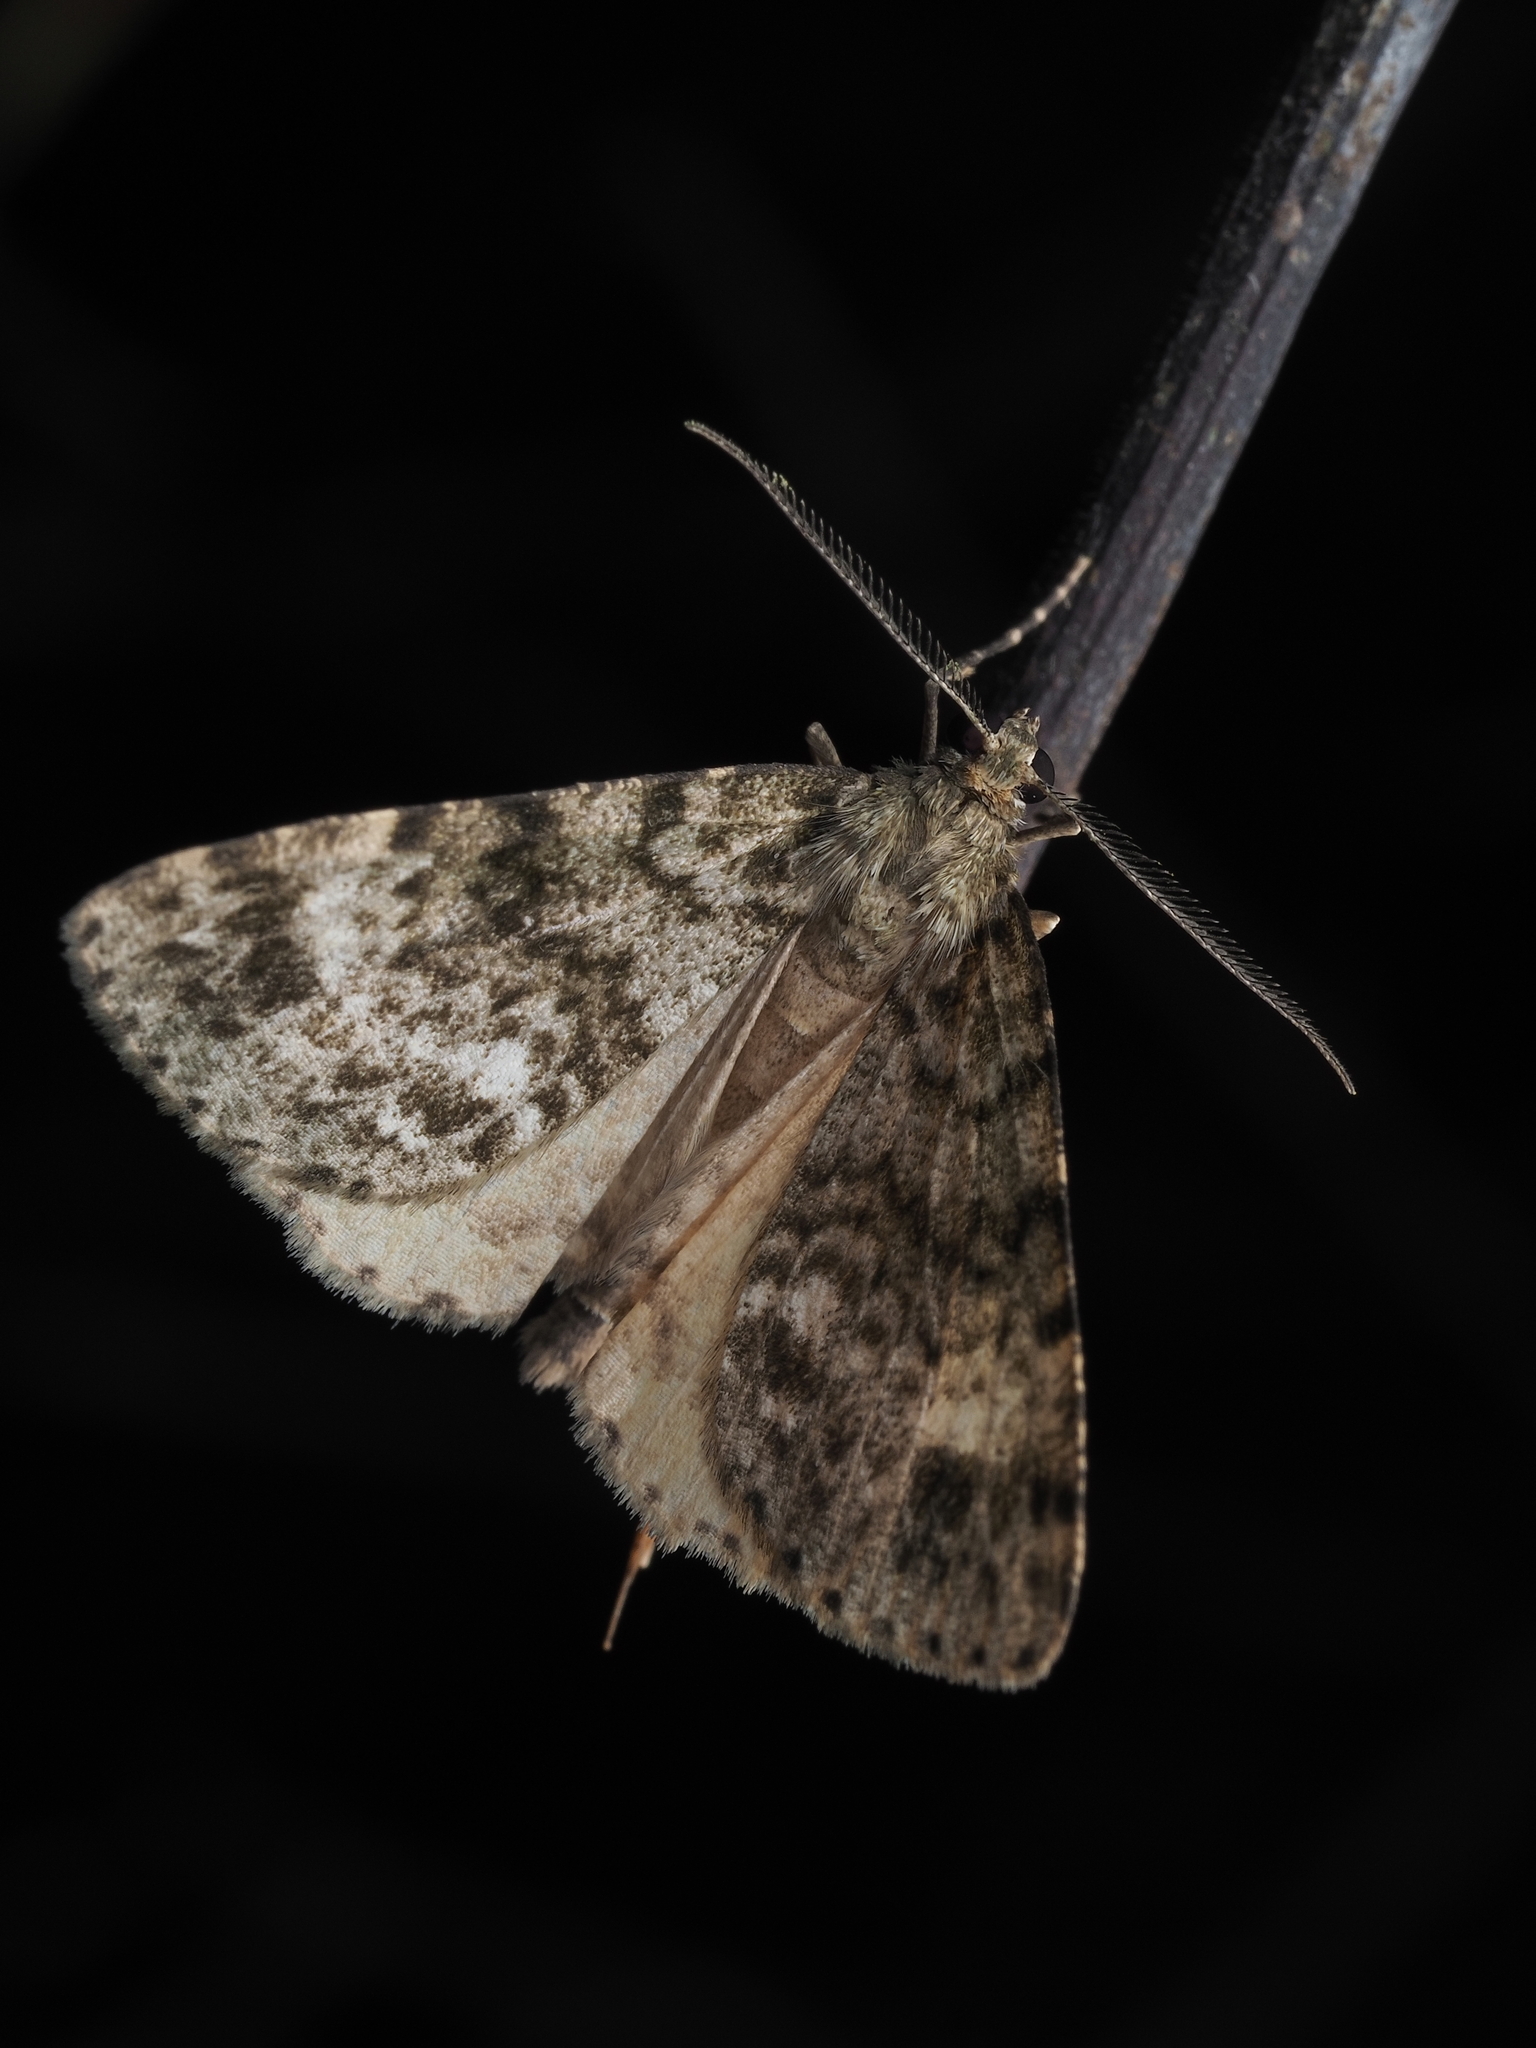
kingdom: Animalia
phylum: Arthropoda
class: Insecta
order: Lepidoptera
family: Geometridae
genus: Pseudocoremia
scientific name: Pseudocoremia indistincta
